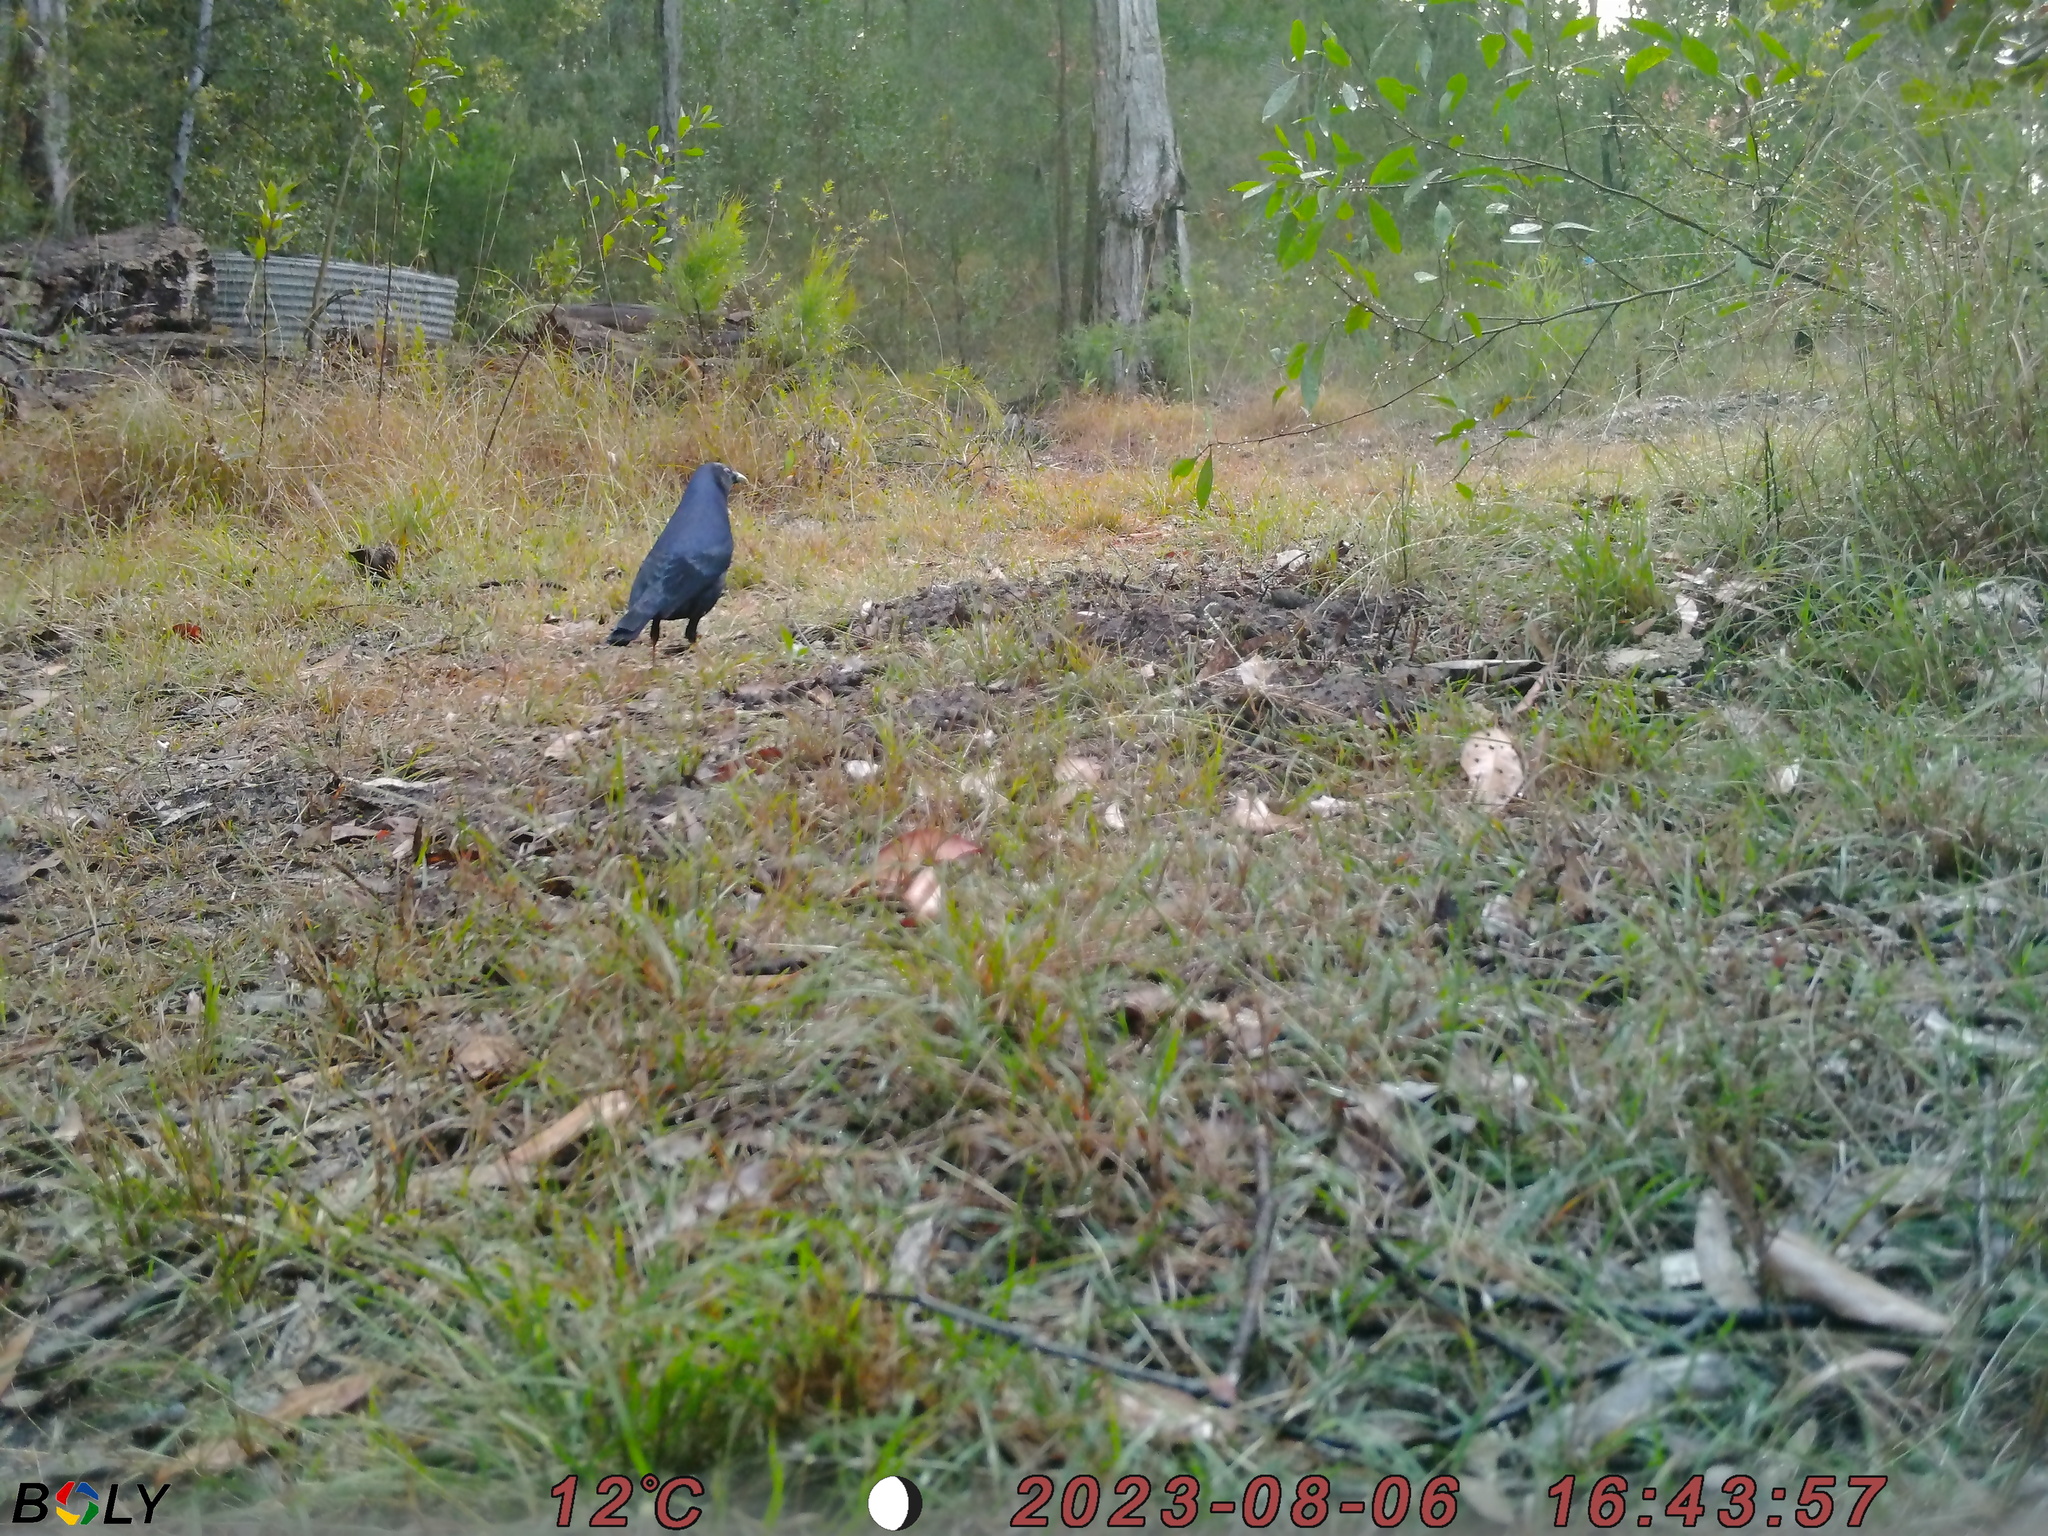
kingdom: Animalia
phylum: Chordata
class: Aves
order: Passeriformes
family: Ptilonorhynchidae
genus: Ptilonorhynchus
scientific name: Ptilonorhynchus violaceus
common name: Satin bowerbird
